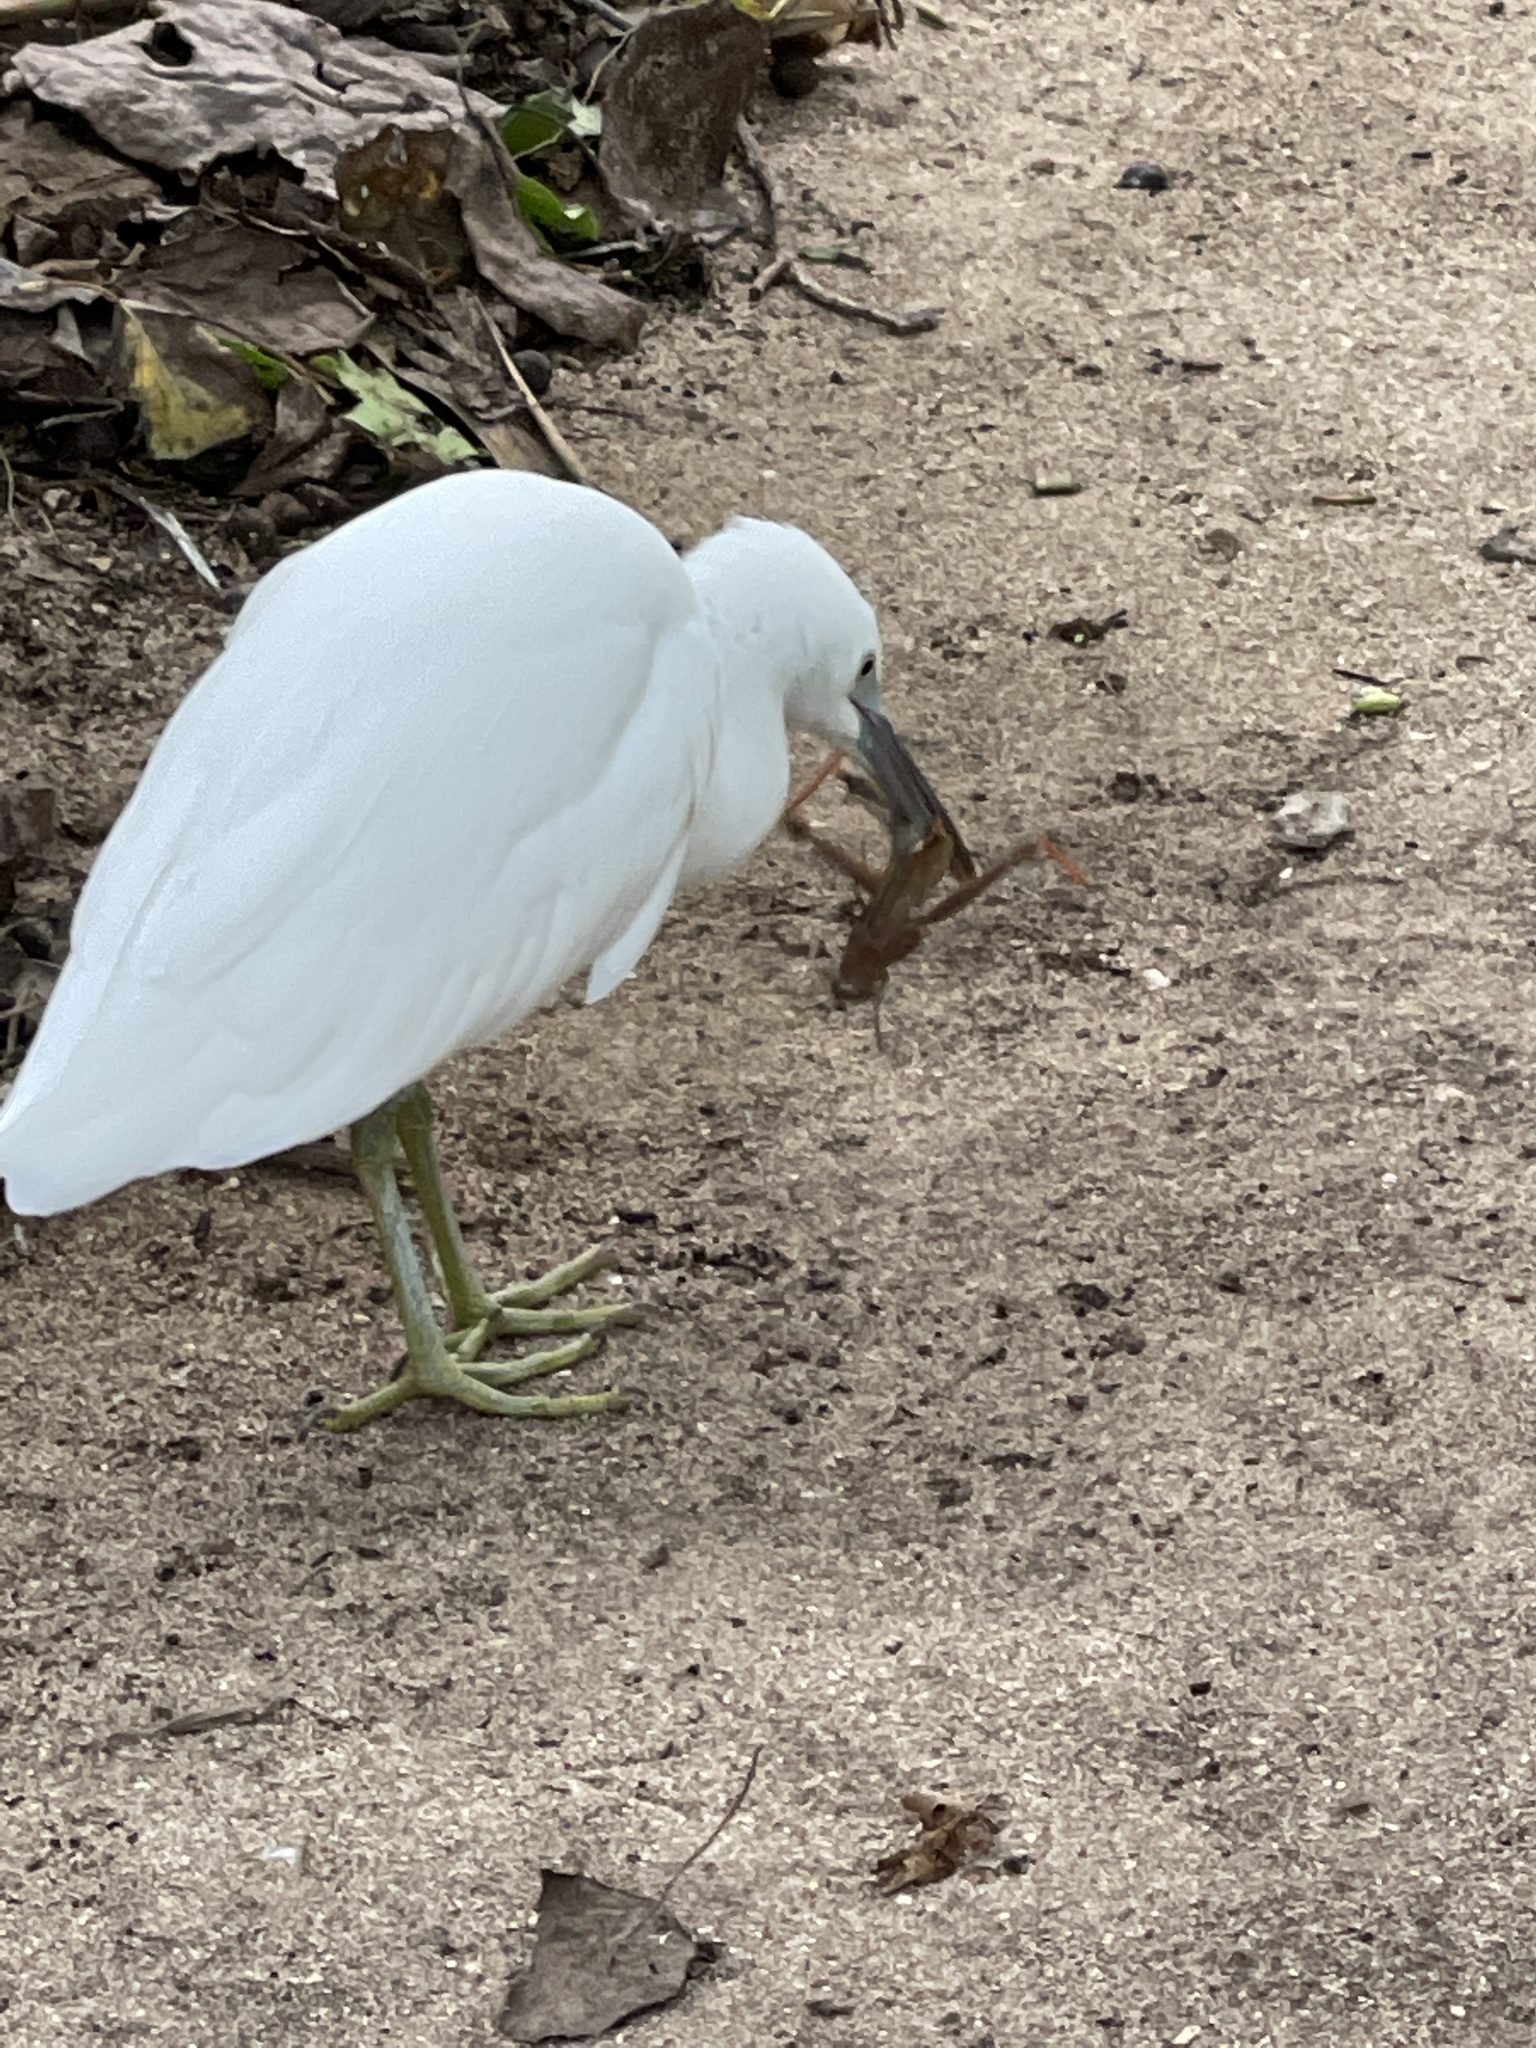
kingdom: Animalia
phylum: Chordata
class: Aves
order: Pelecaniformes
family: Ardeidae
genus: Egretta
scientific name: Egretta sacra
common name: Pacific reef heron
